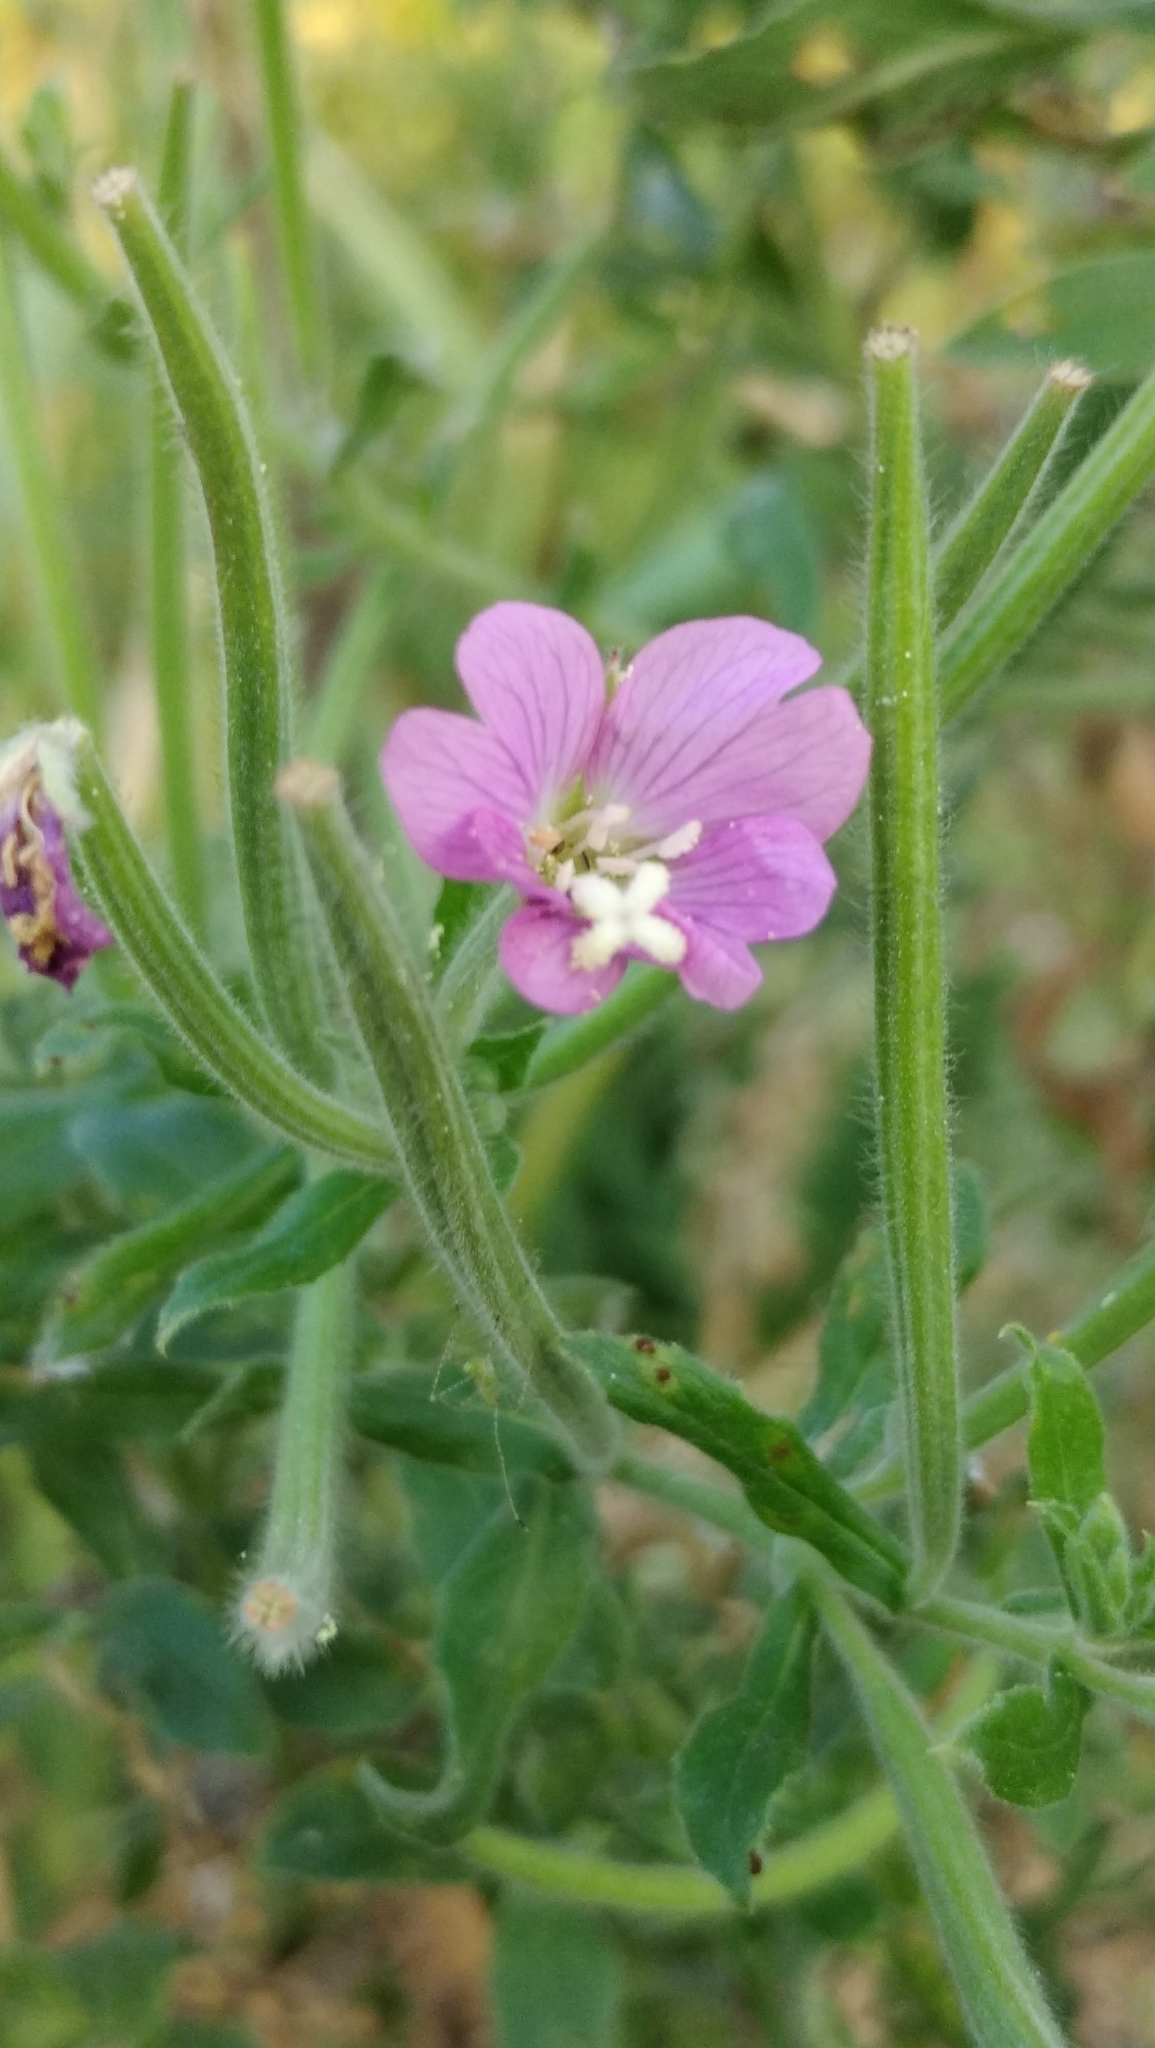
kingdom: Plantae
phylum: Tracheophyta
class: Magnoliopsida
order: Myrtales
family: Onagraceae
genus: Epilobium
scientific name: Epilobium hirsutum
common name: Great willowherb
